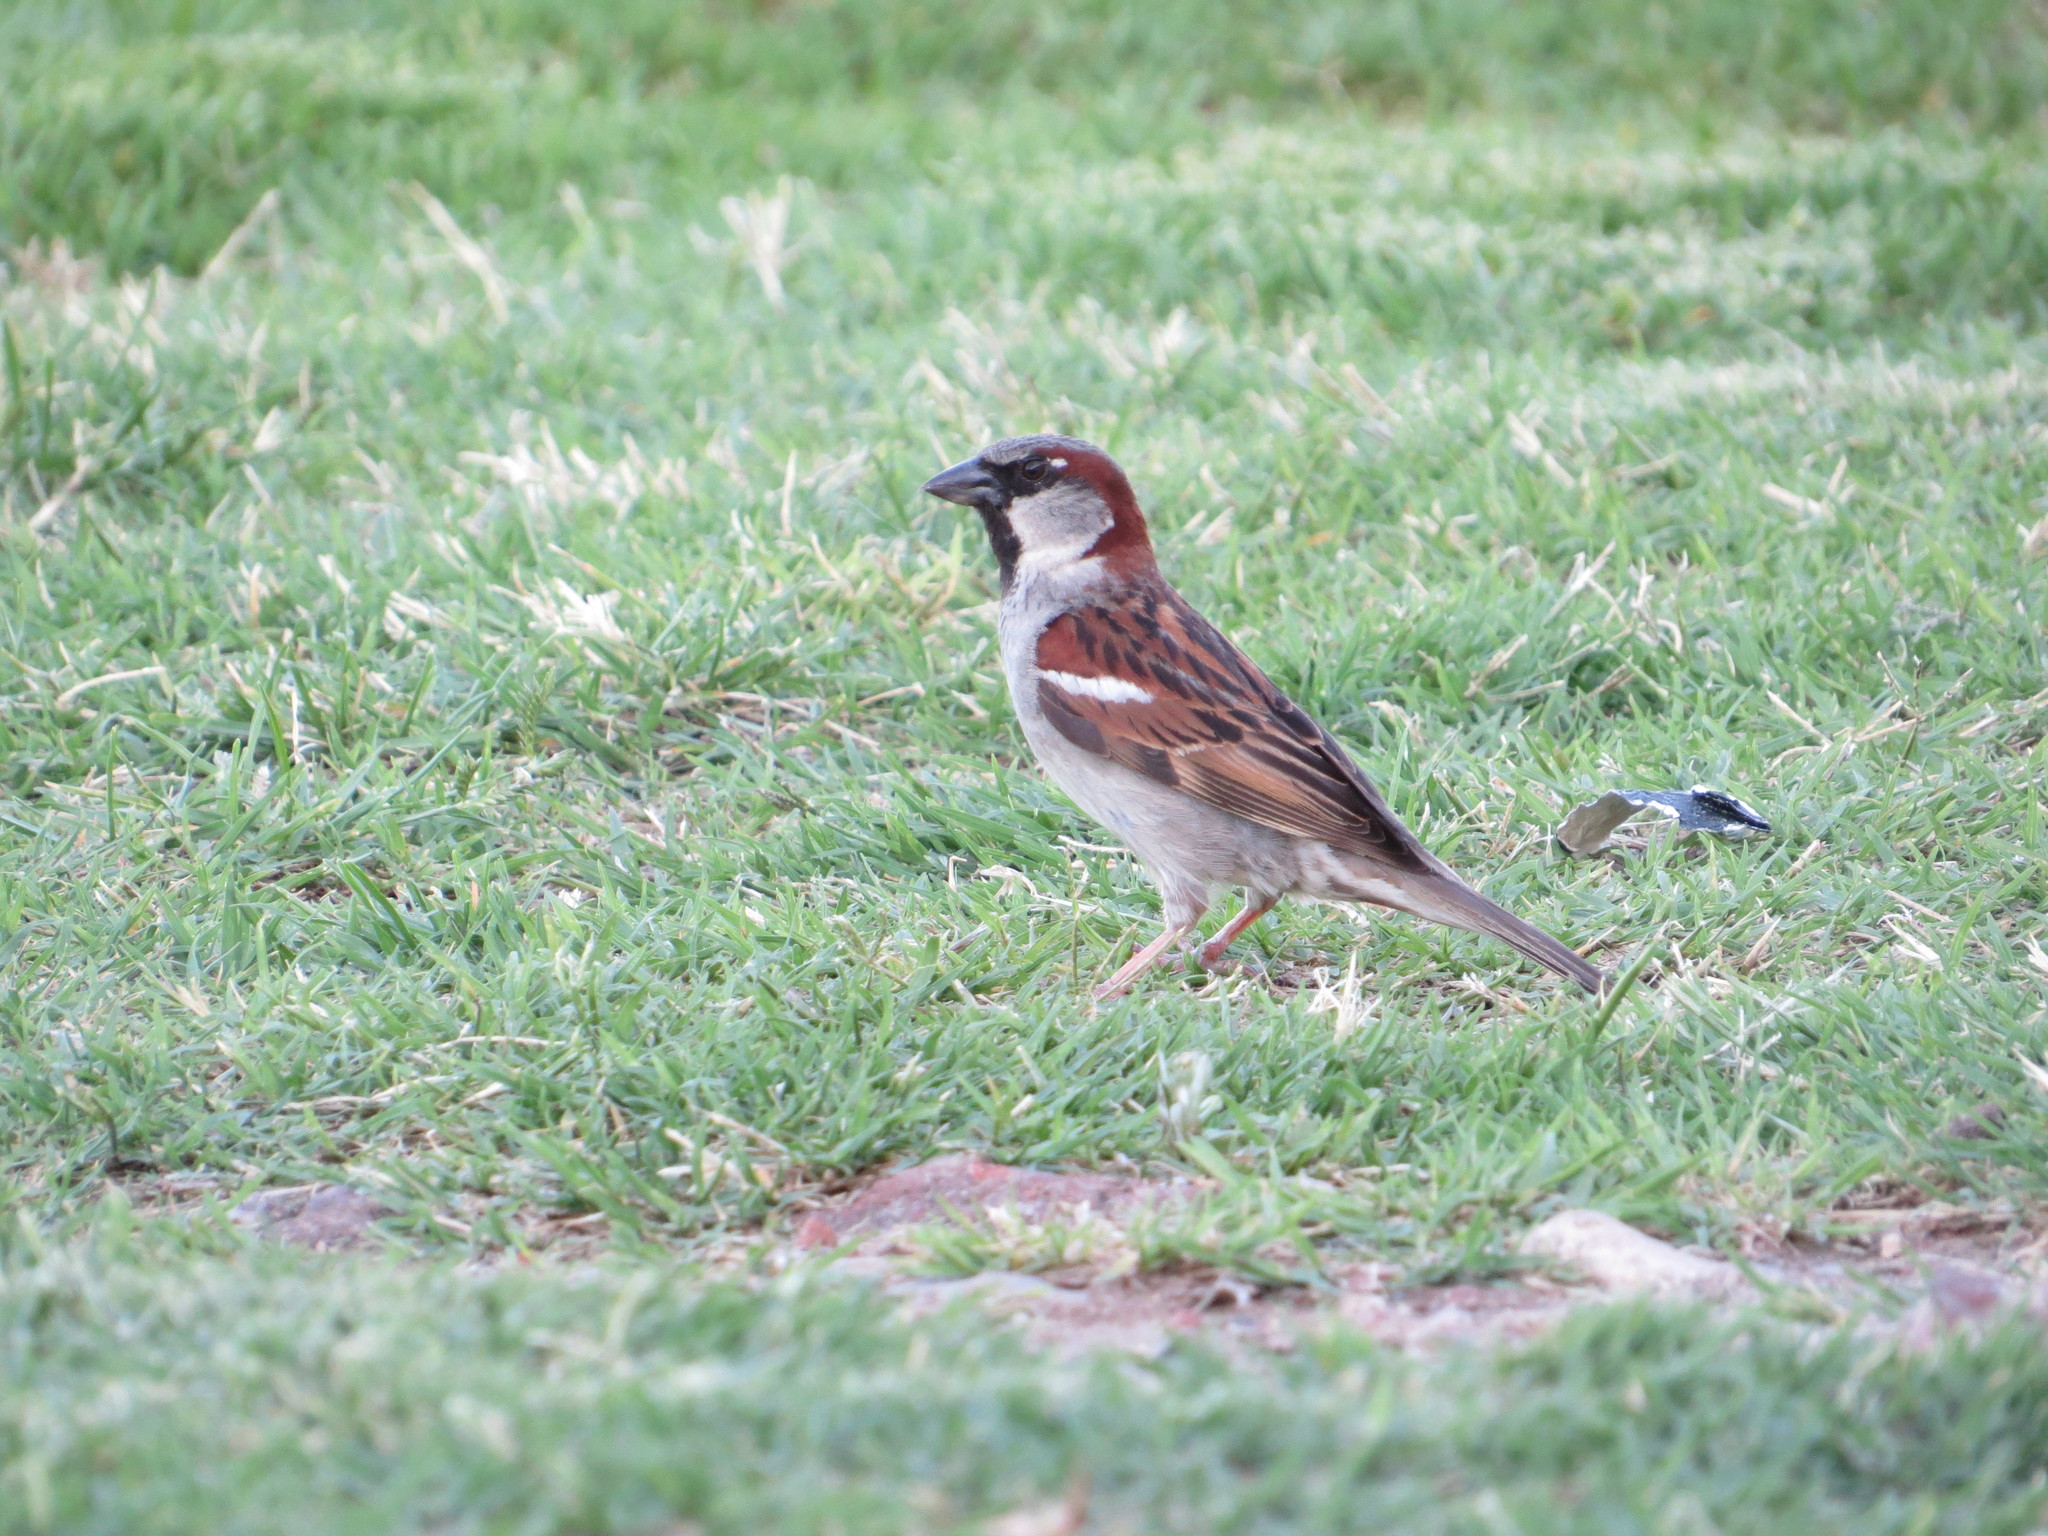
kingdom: Animalia
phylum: Chordata
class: Aves
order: Passeriformes
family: Passeridae
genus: Passer
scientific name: Passer domesticus
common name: House sparrow
